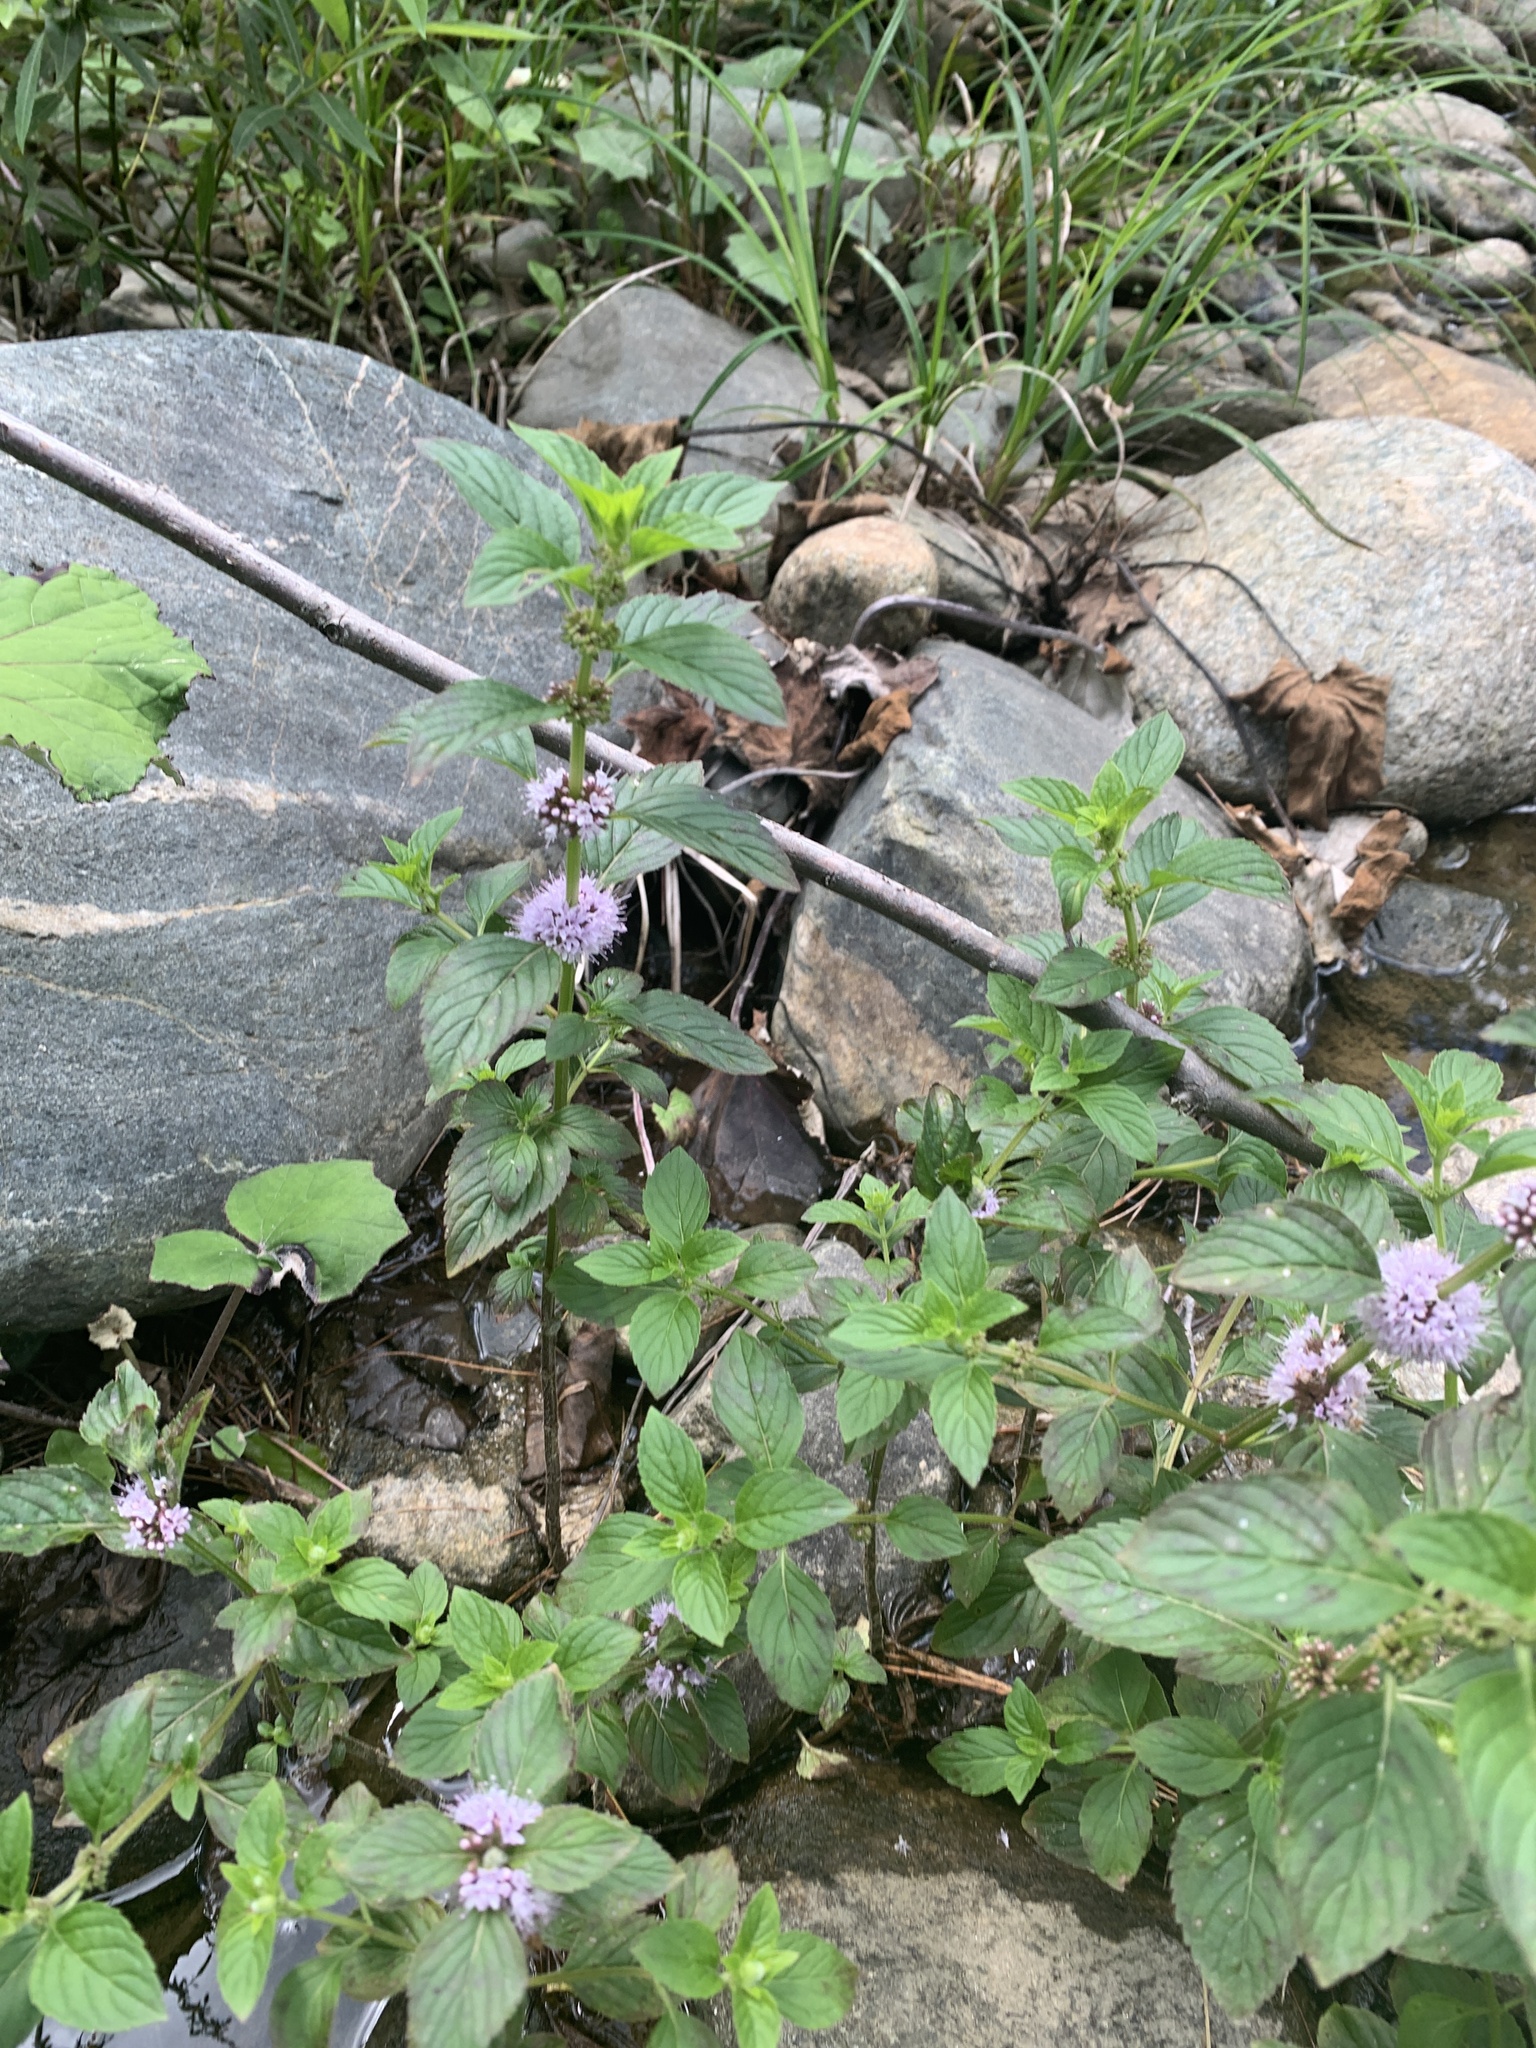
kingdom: Plantae
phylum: Tracheophyta
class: Magnoliopsida
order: Lamiales
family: Lamiaceae
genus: Mentha
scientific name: Mentha canadensis
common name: American corn mint
